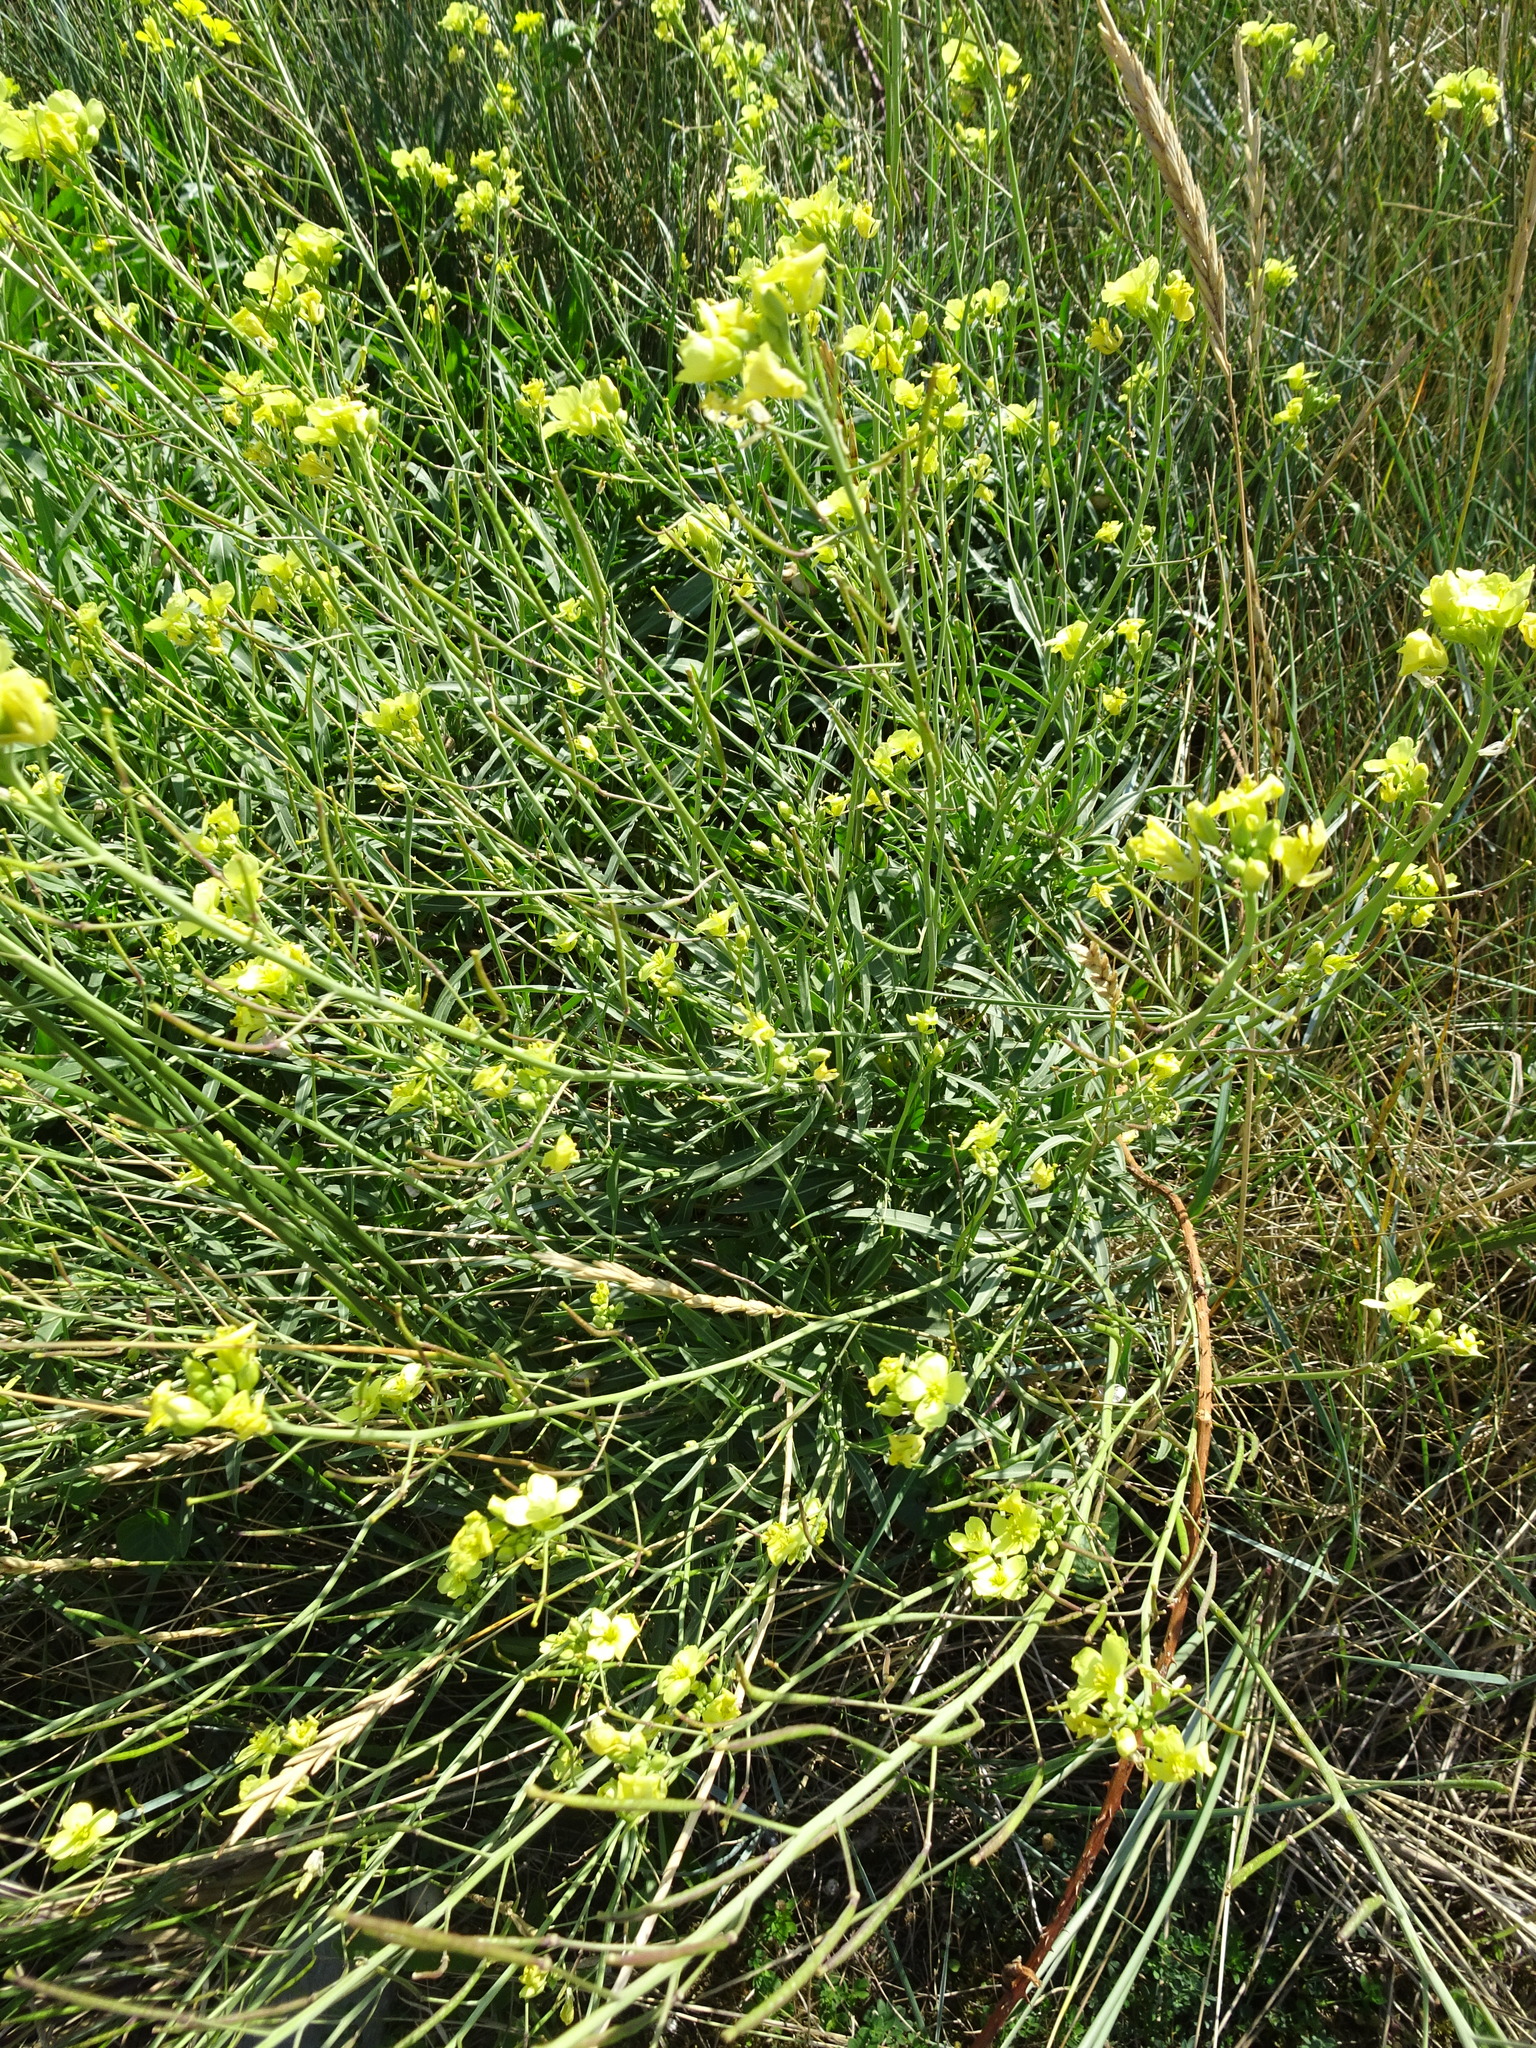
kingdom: Plantae
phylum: Tracheophyta
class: Magnoliopsida
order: Brassicales
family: Brassicaceae
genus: Diplotaxis
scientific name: Diplotaxis tenuifolia
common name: Perennial wall-rocket
